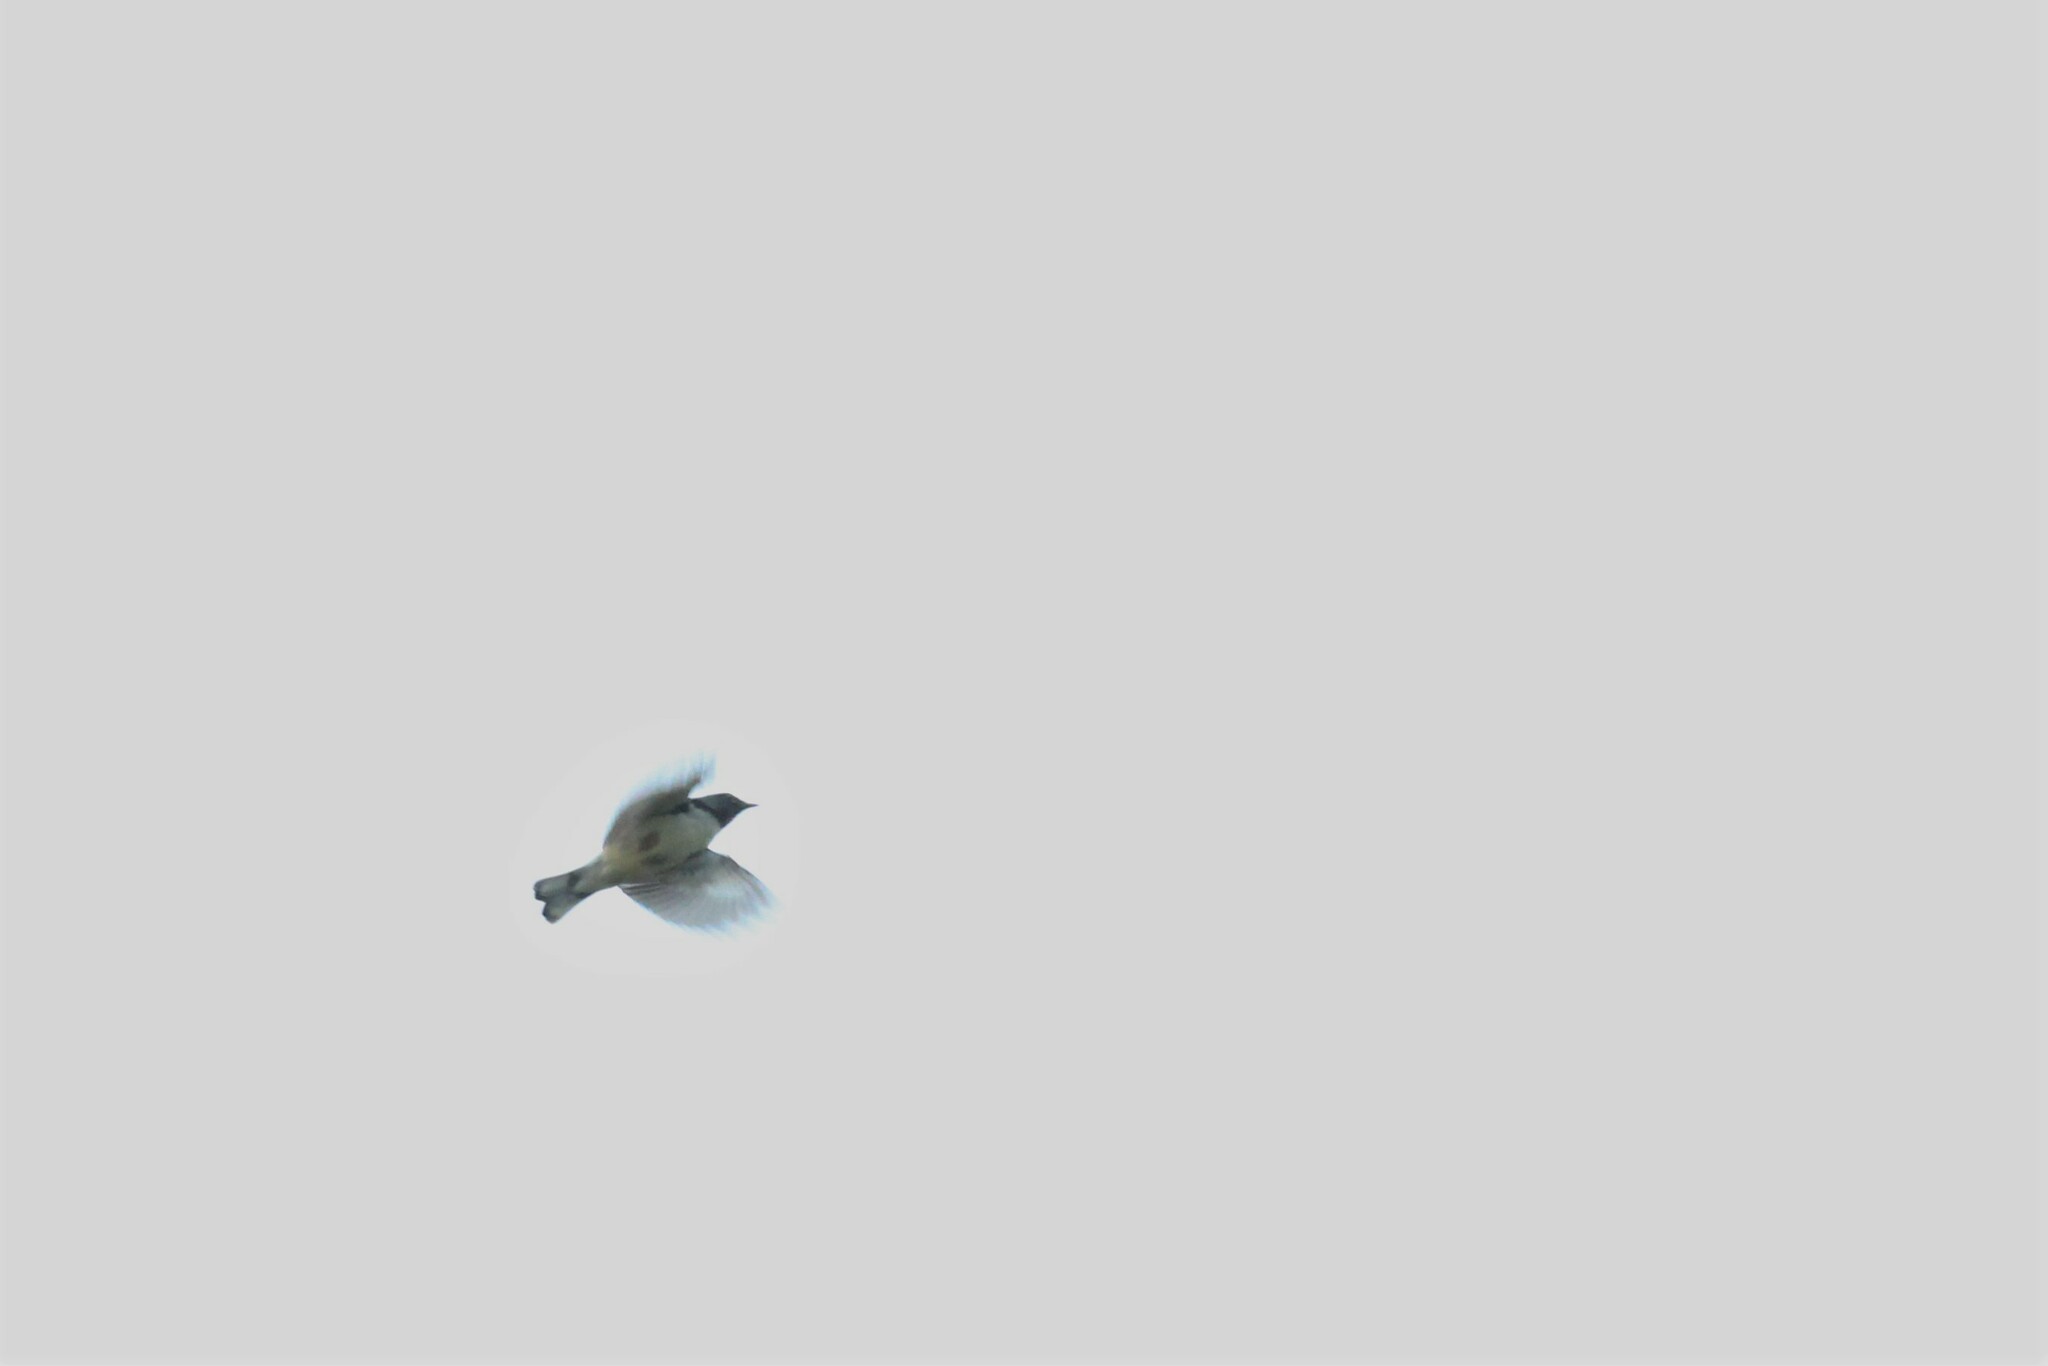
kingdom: Animalia
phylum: Chordata
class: Aves
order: Passeriformes
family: Parulidae
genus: Setophaga
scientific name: Setophaga caerulescens
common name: Black-throated blue warbler
